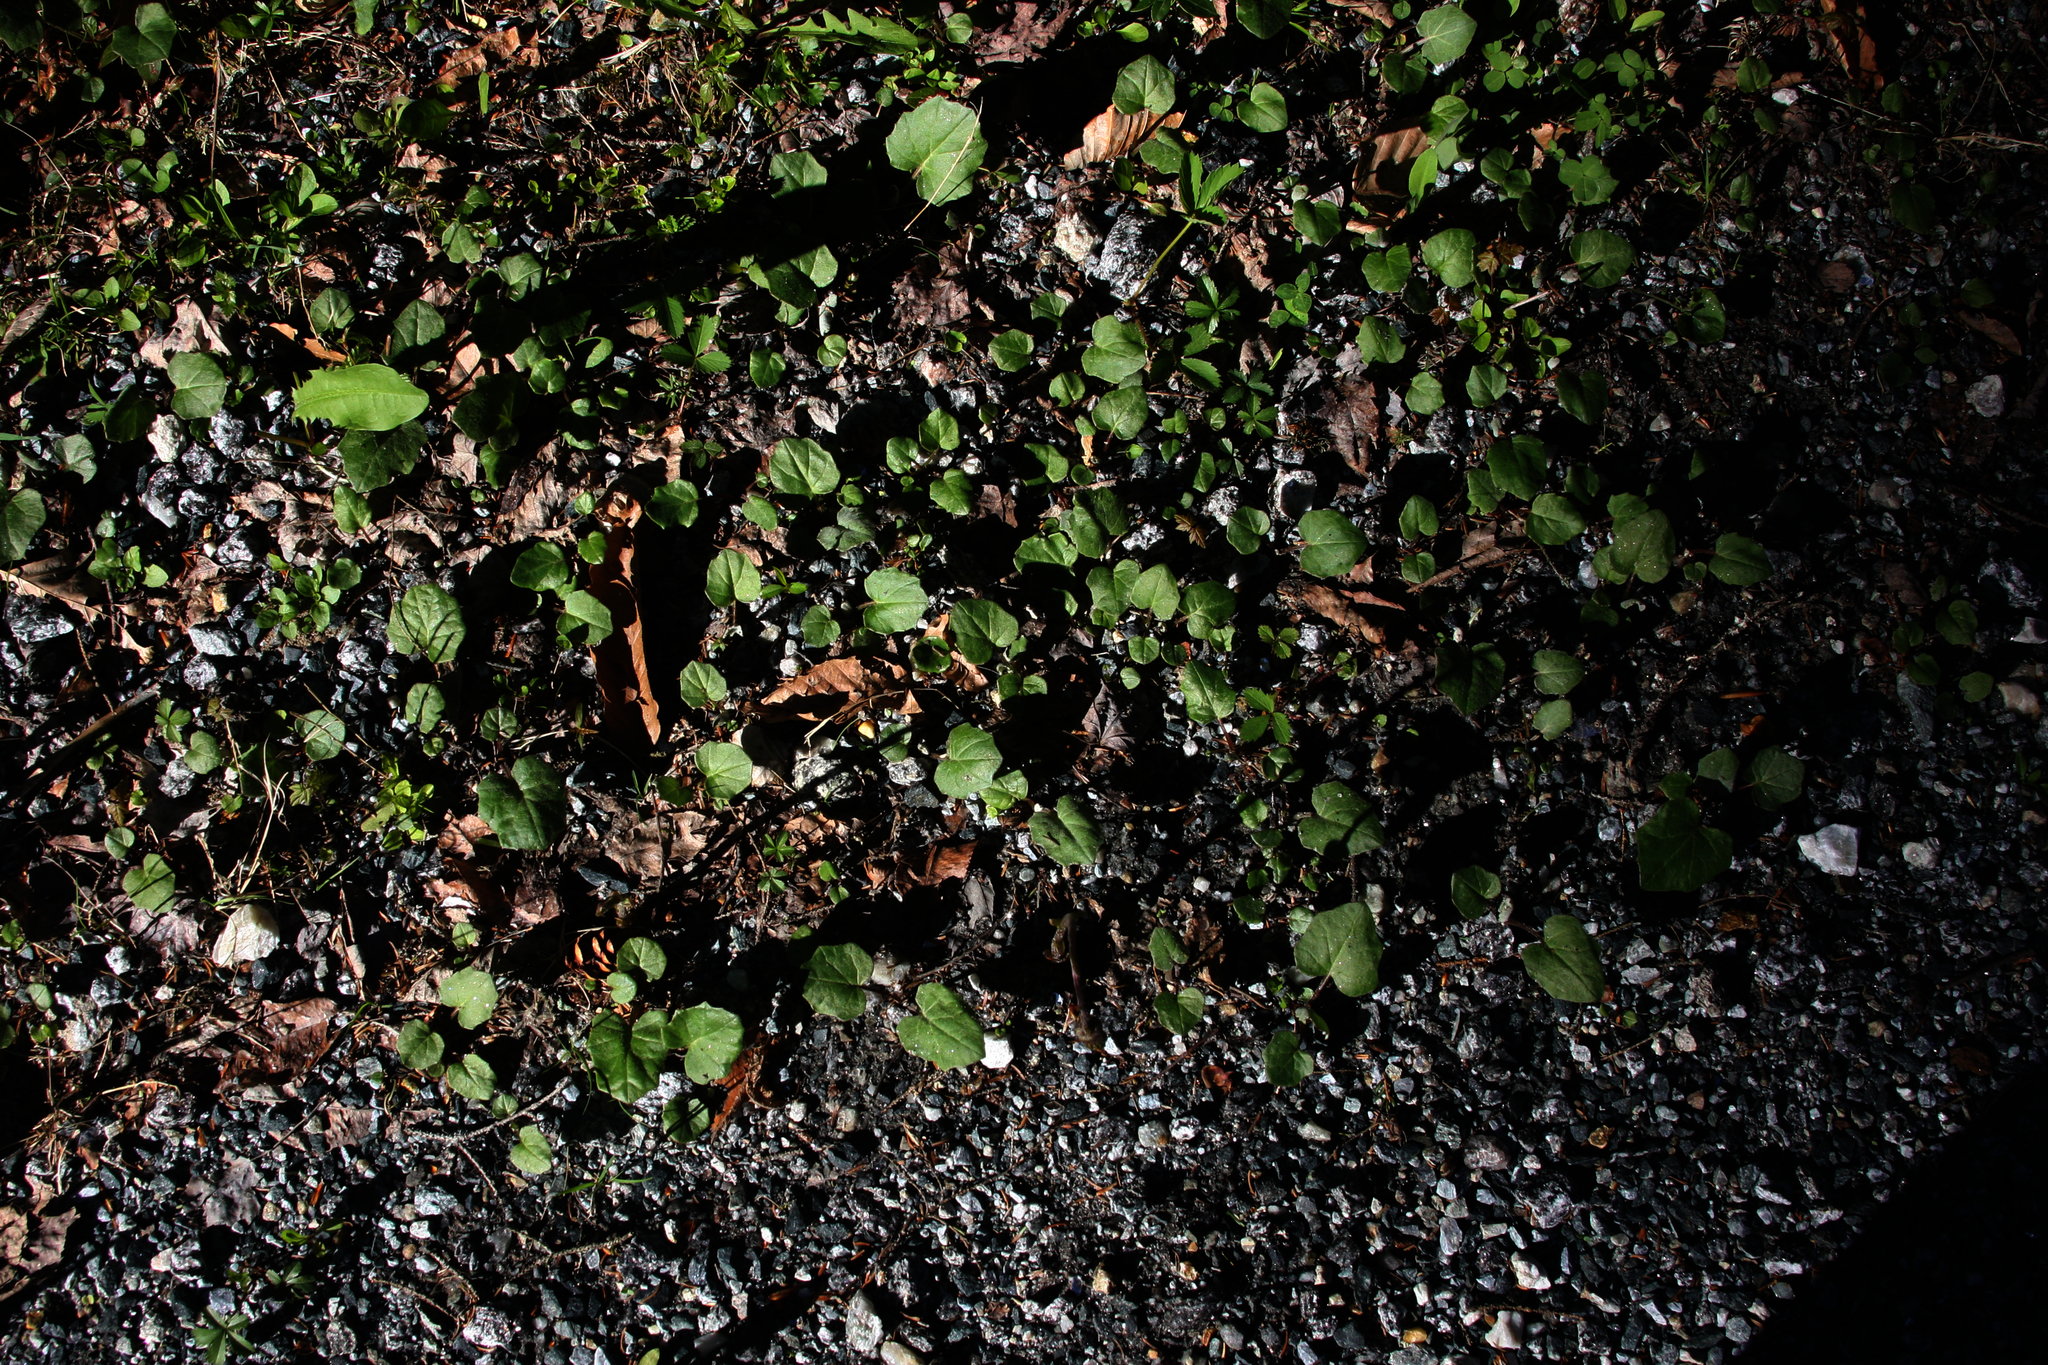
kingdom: Plantae
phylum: Tracheophyta
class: Magnoliopsida
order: Asterales
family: Asteraceae
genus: Tussilago
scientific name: Tussilago farfara
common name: Coltsfoot
